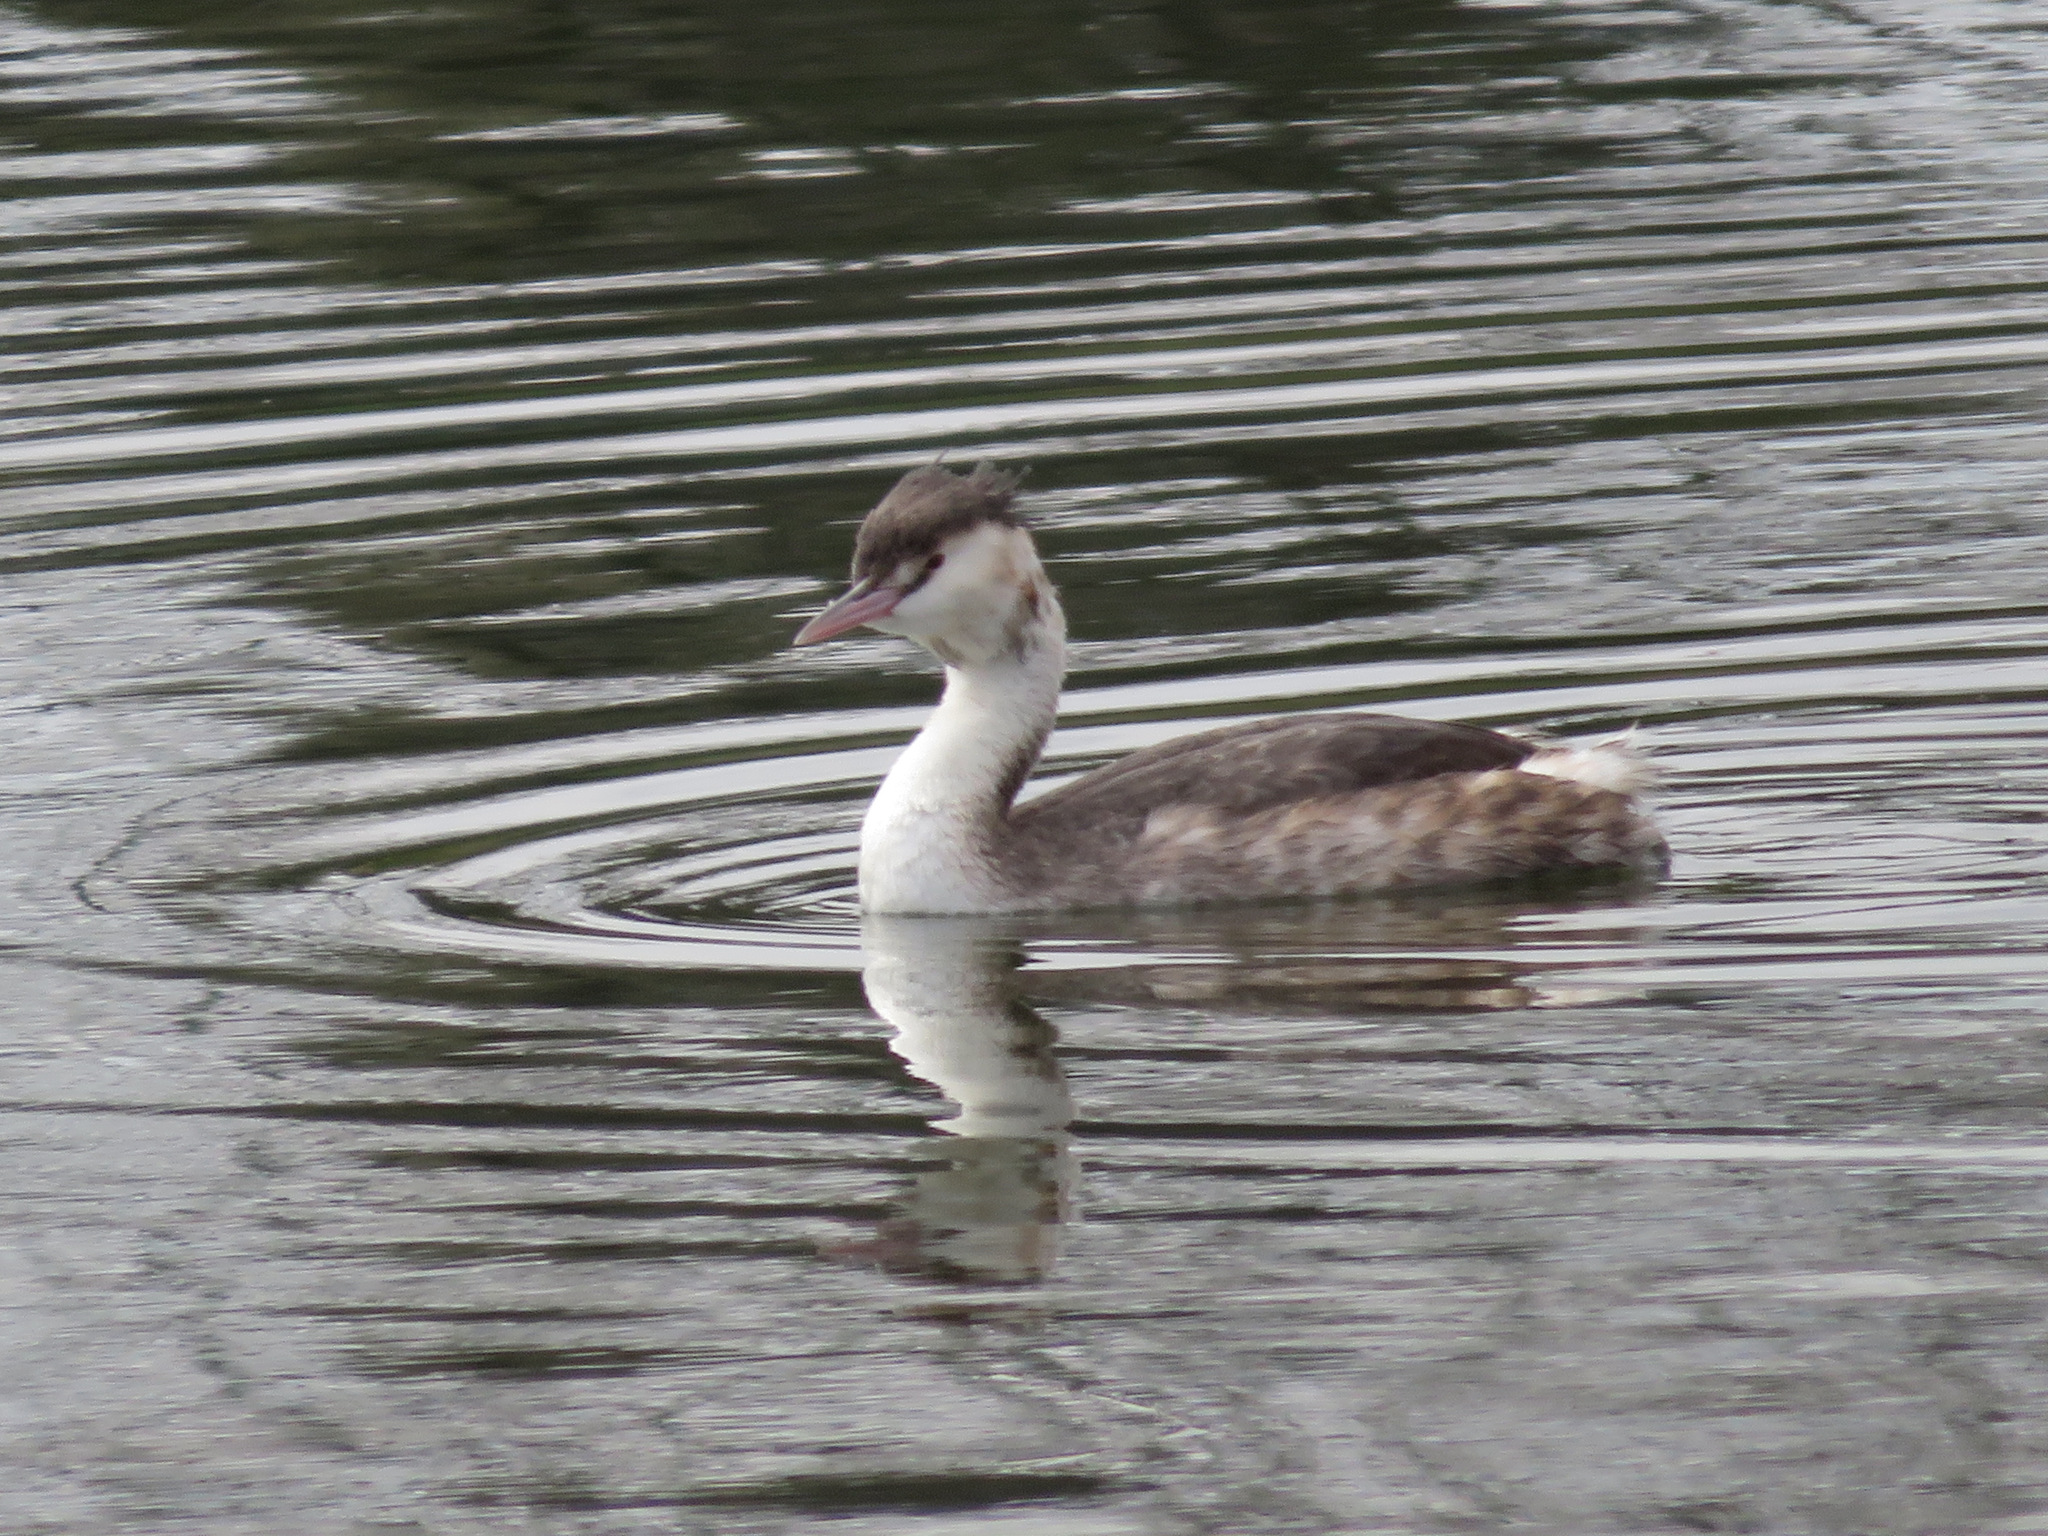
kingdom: Animalia
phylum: Chordata
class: Aves
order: Podicipediformes
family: Podicipedidae
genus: Podiceps
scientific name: Podiceps cristatus
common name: Great crested grebe
